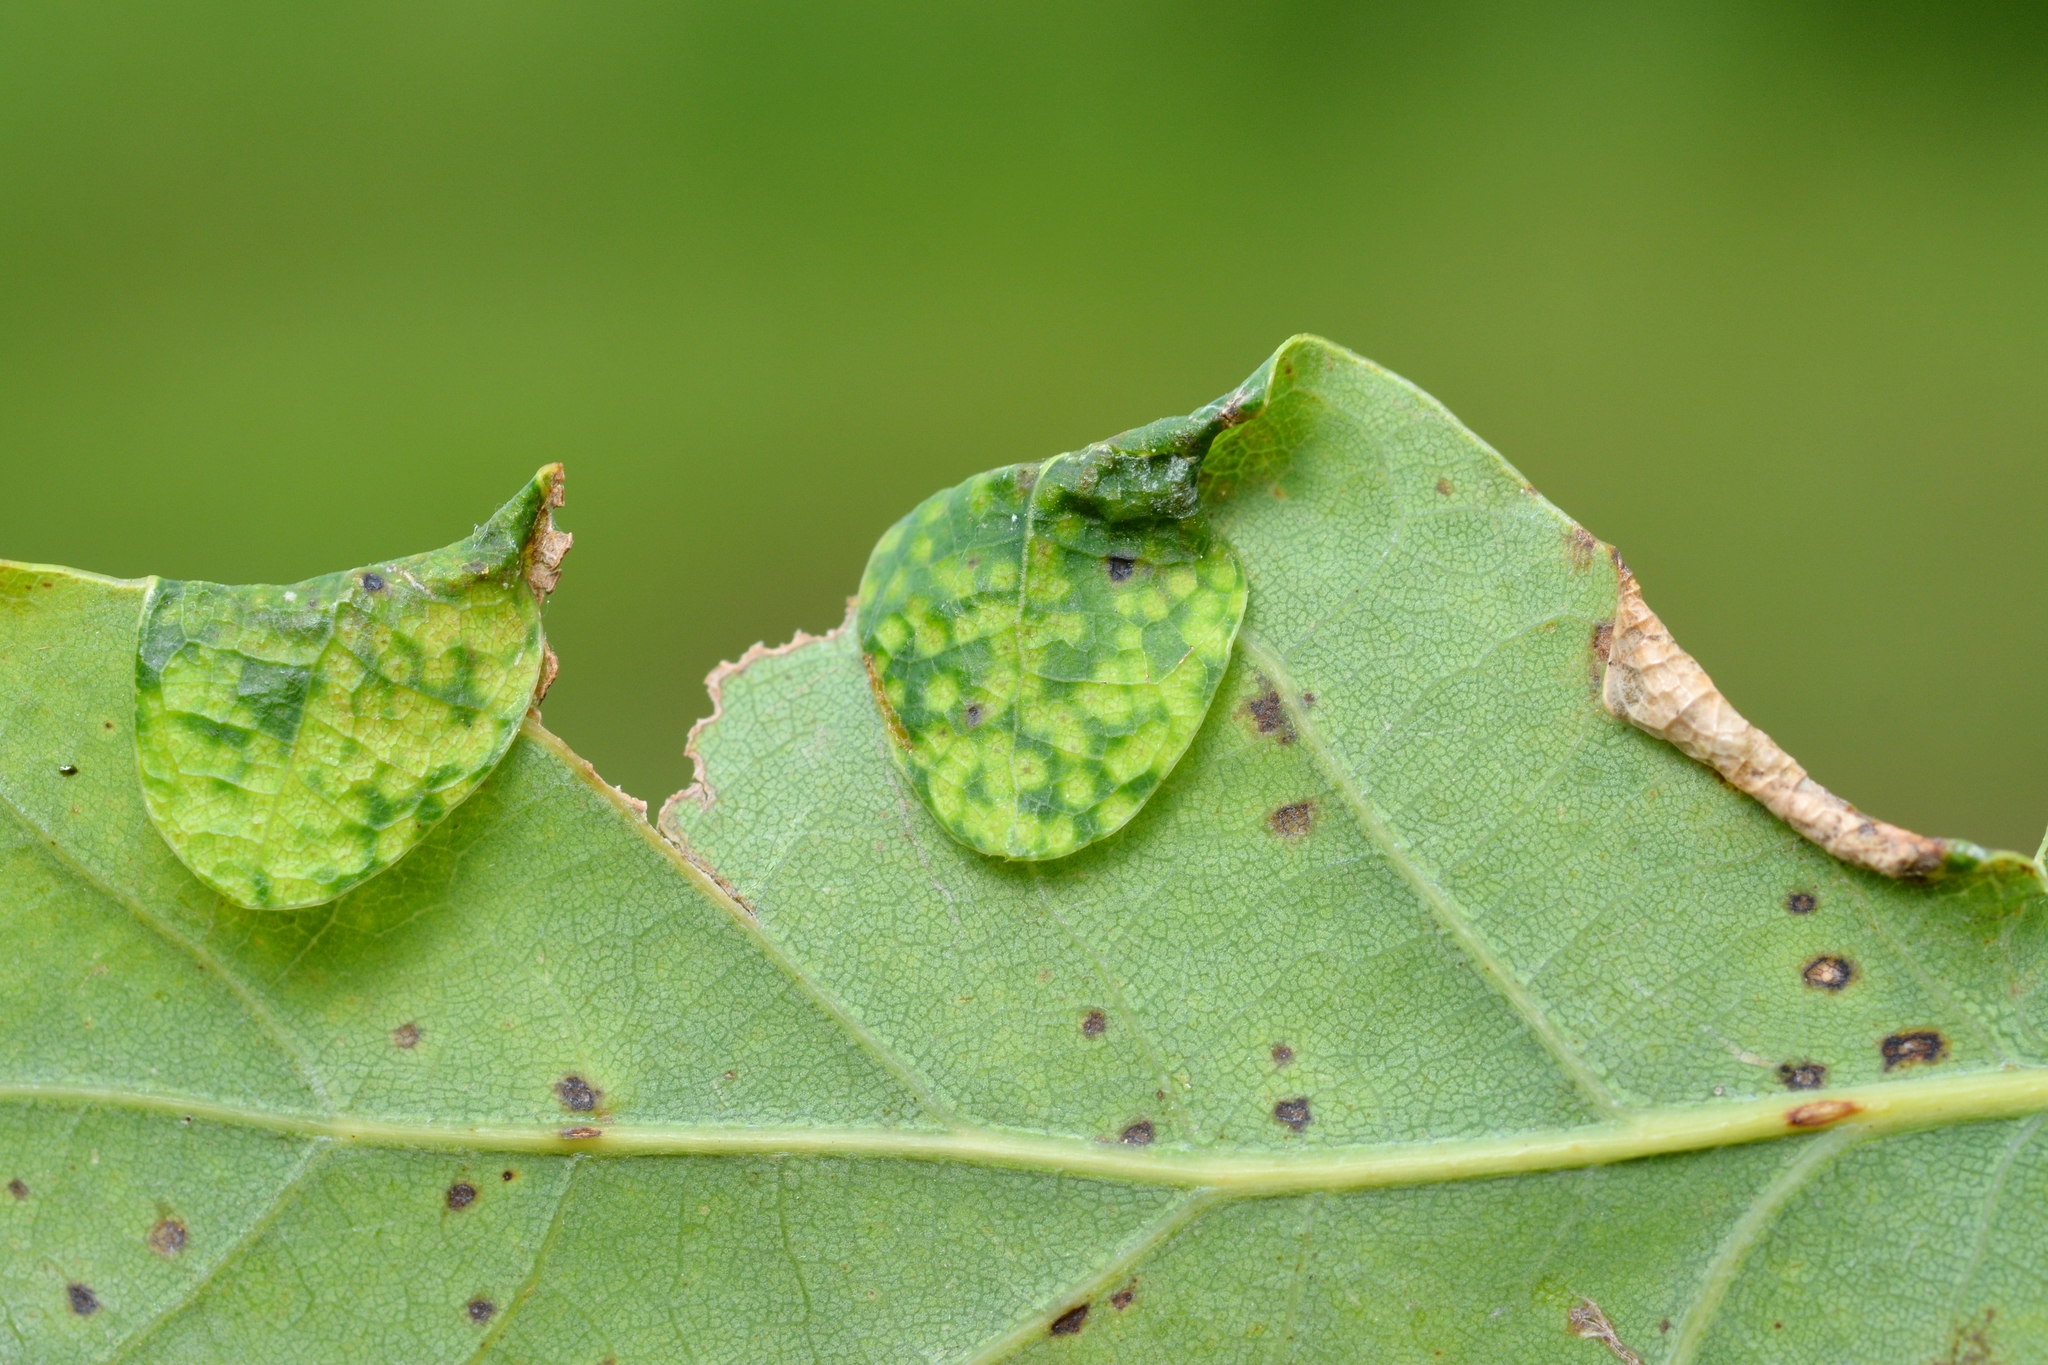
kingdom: Animalia
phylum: Arthropoda
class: Insecta
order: Diptera
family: Cecidomyiidae
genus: Macrodiplosis
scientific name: Macrodiplosis pustularis
